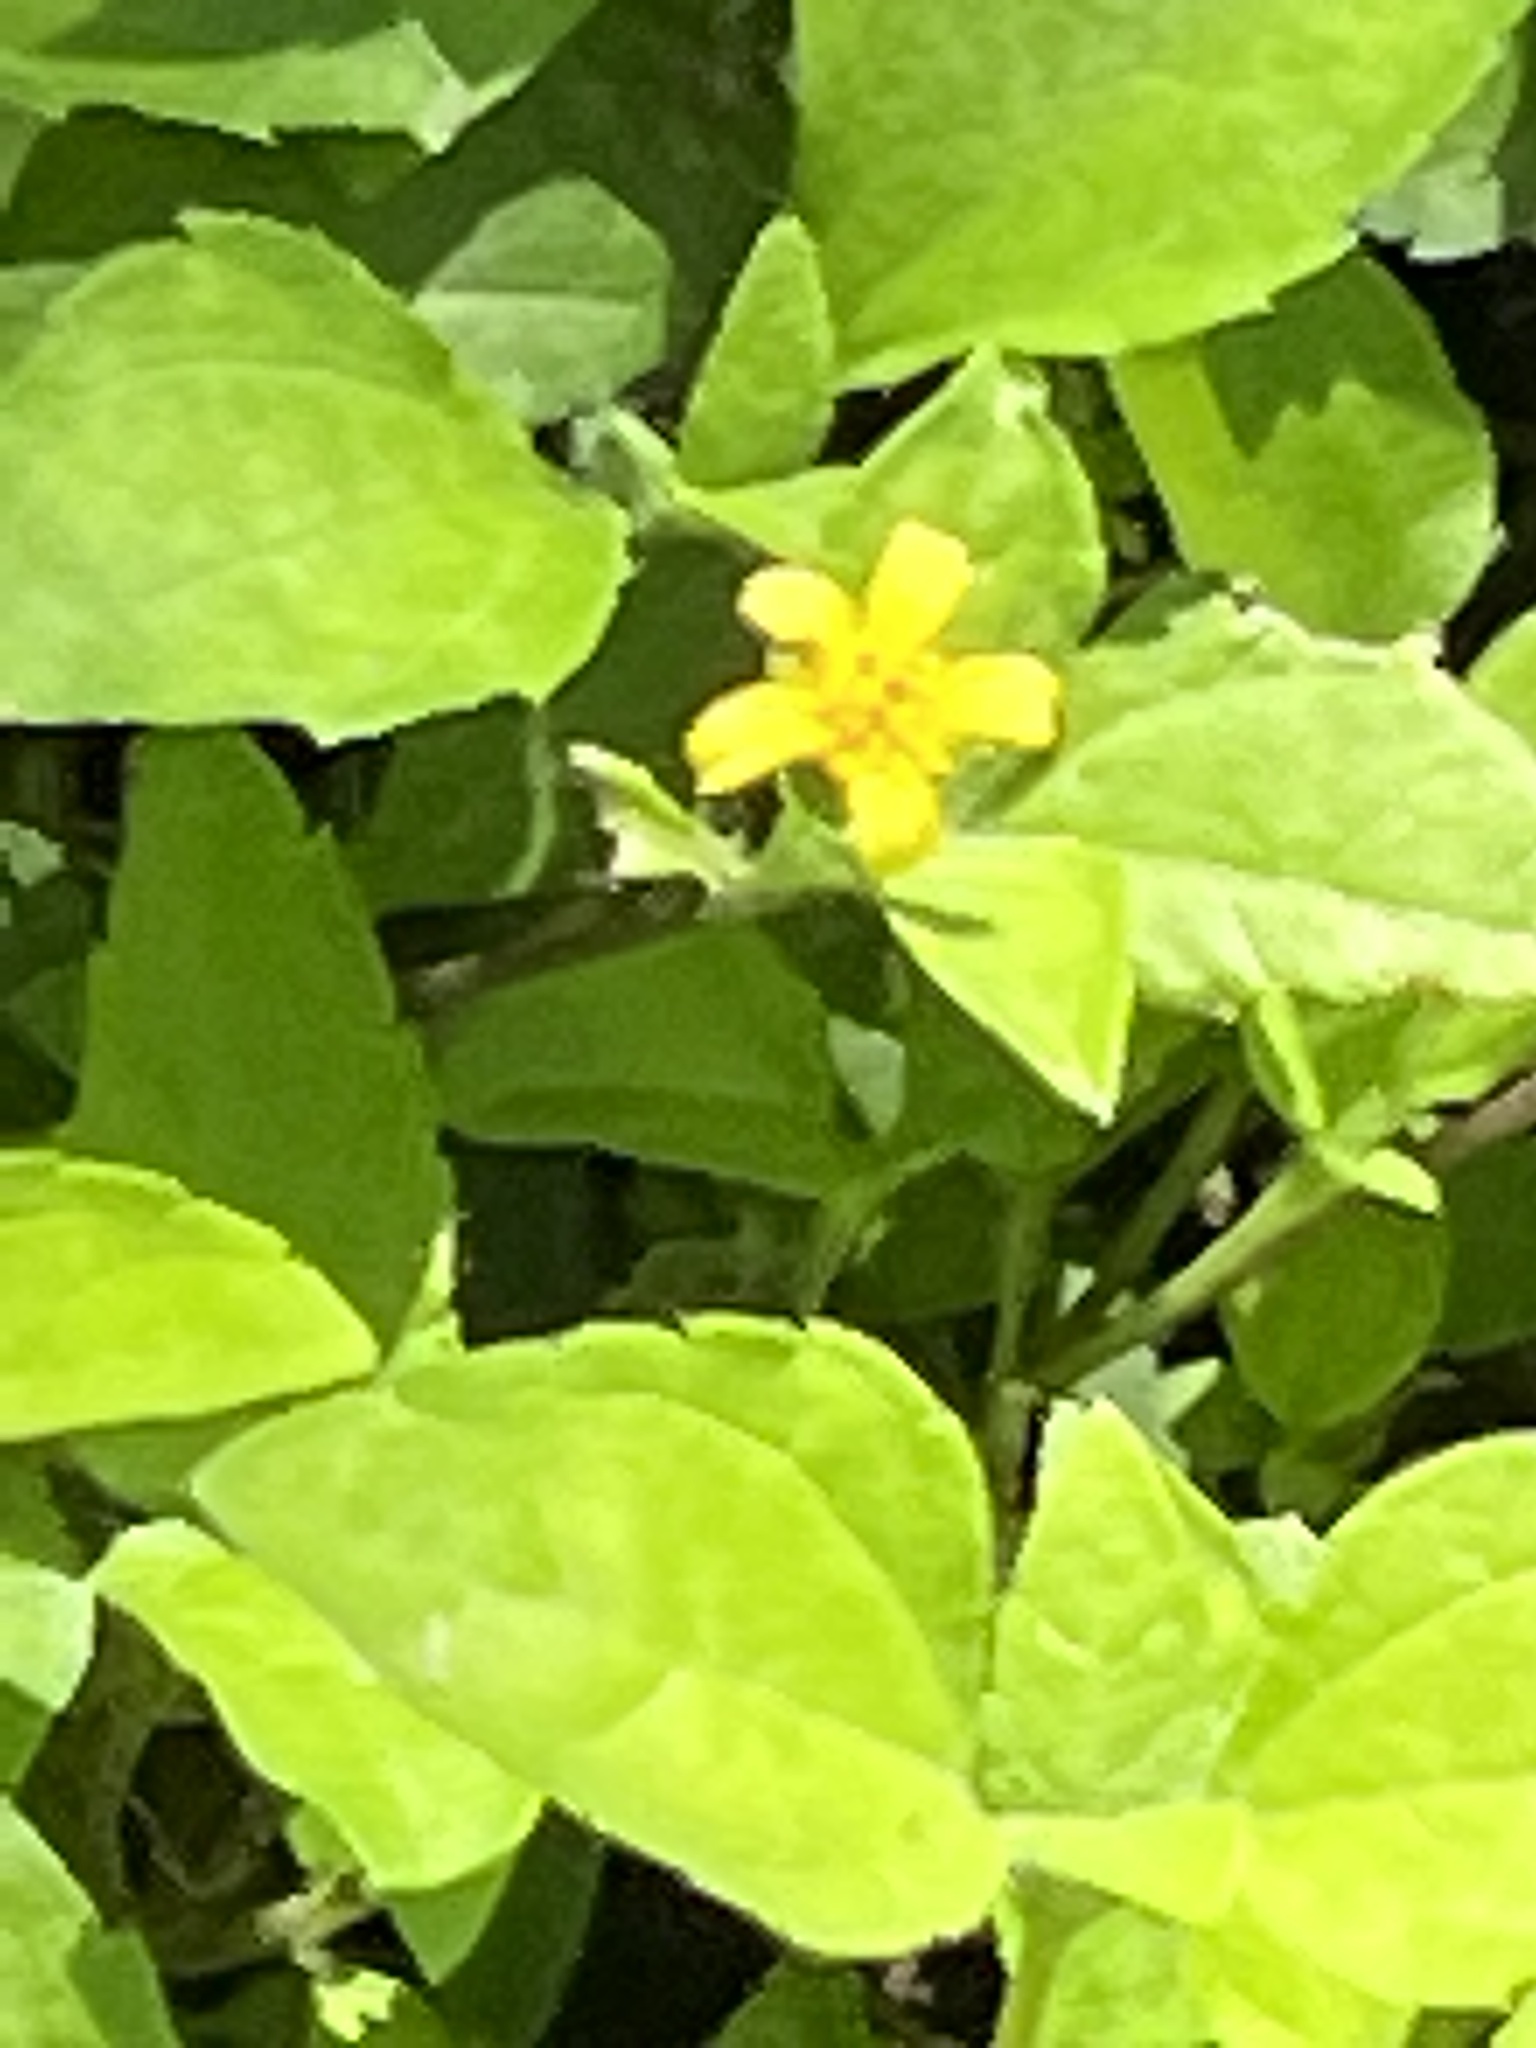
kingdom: Plantae
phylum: Tracheophyta
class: Magnoliopsida
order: Asterales
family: Asteraceae
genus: Calyptocarpus
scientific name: Calyptocarpus vialis
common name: Straggler daisy
